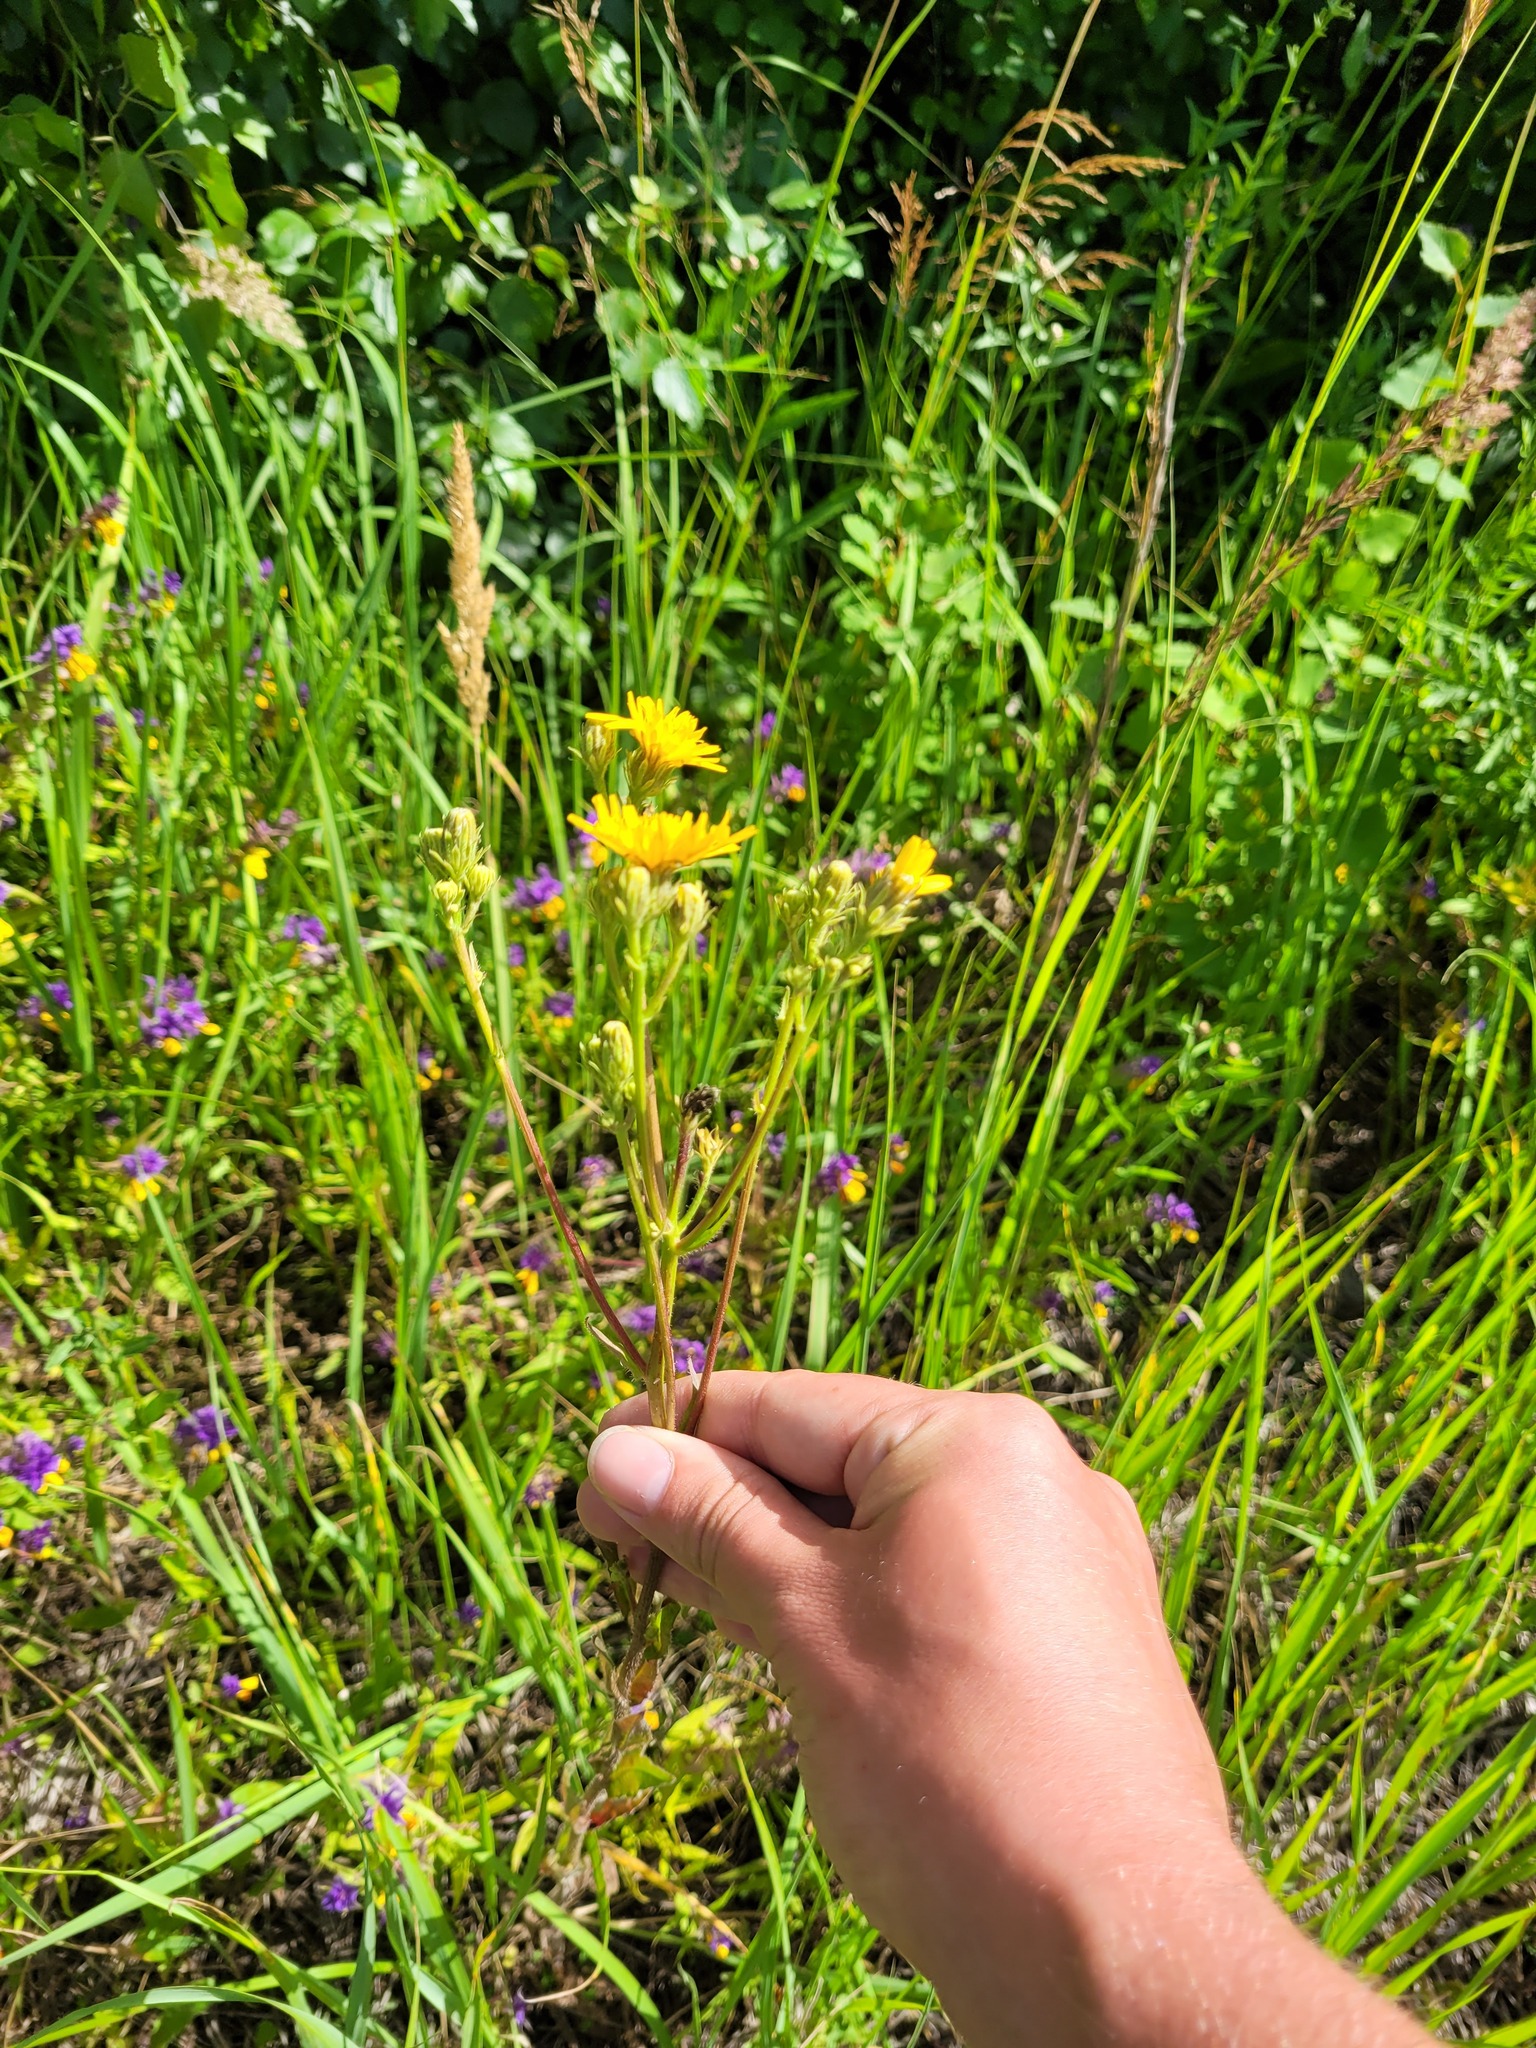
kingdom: Plantae
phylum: Tracheophyta
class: Magnoliopsida
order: Asterales
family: Asteraceae
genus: Picris
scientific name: Picris hieracioides
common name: Hawkweed oxtongue
